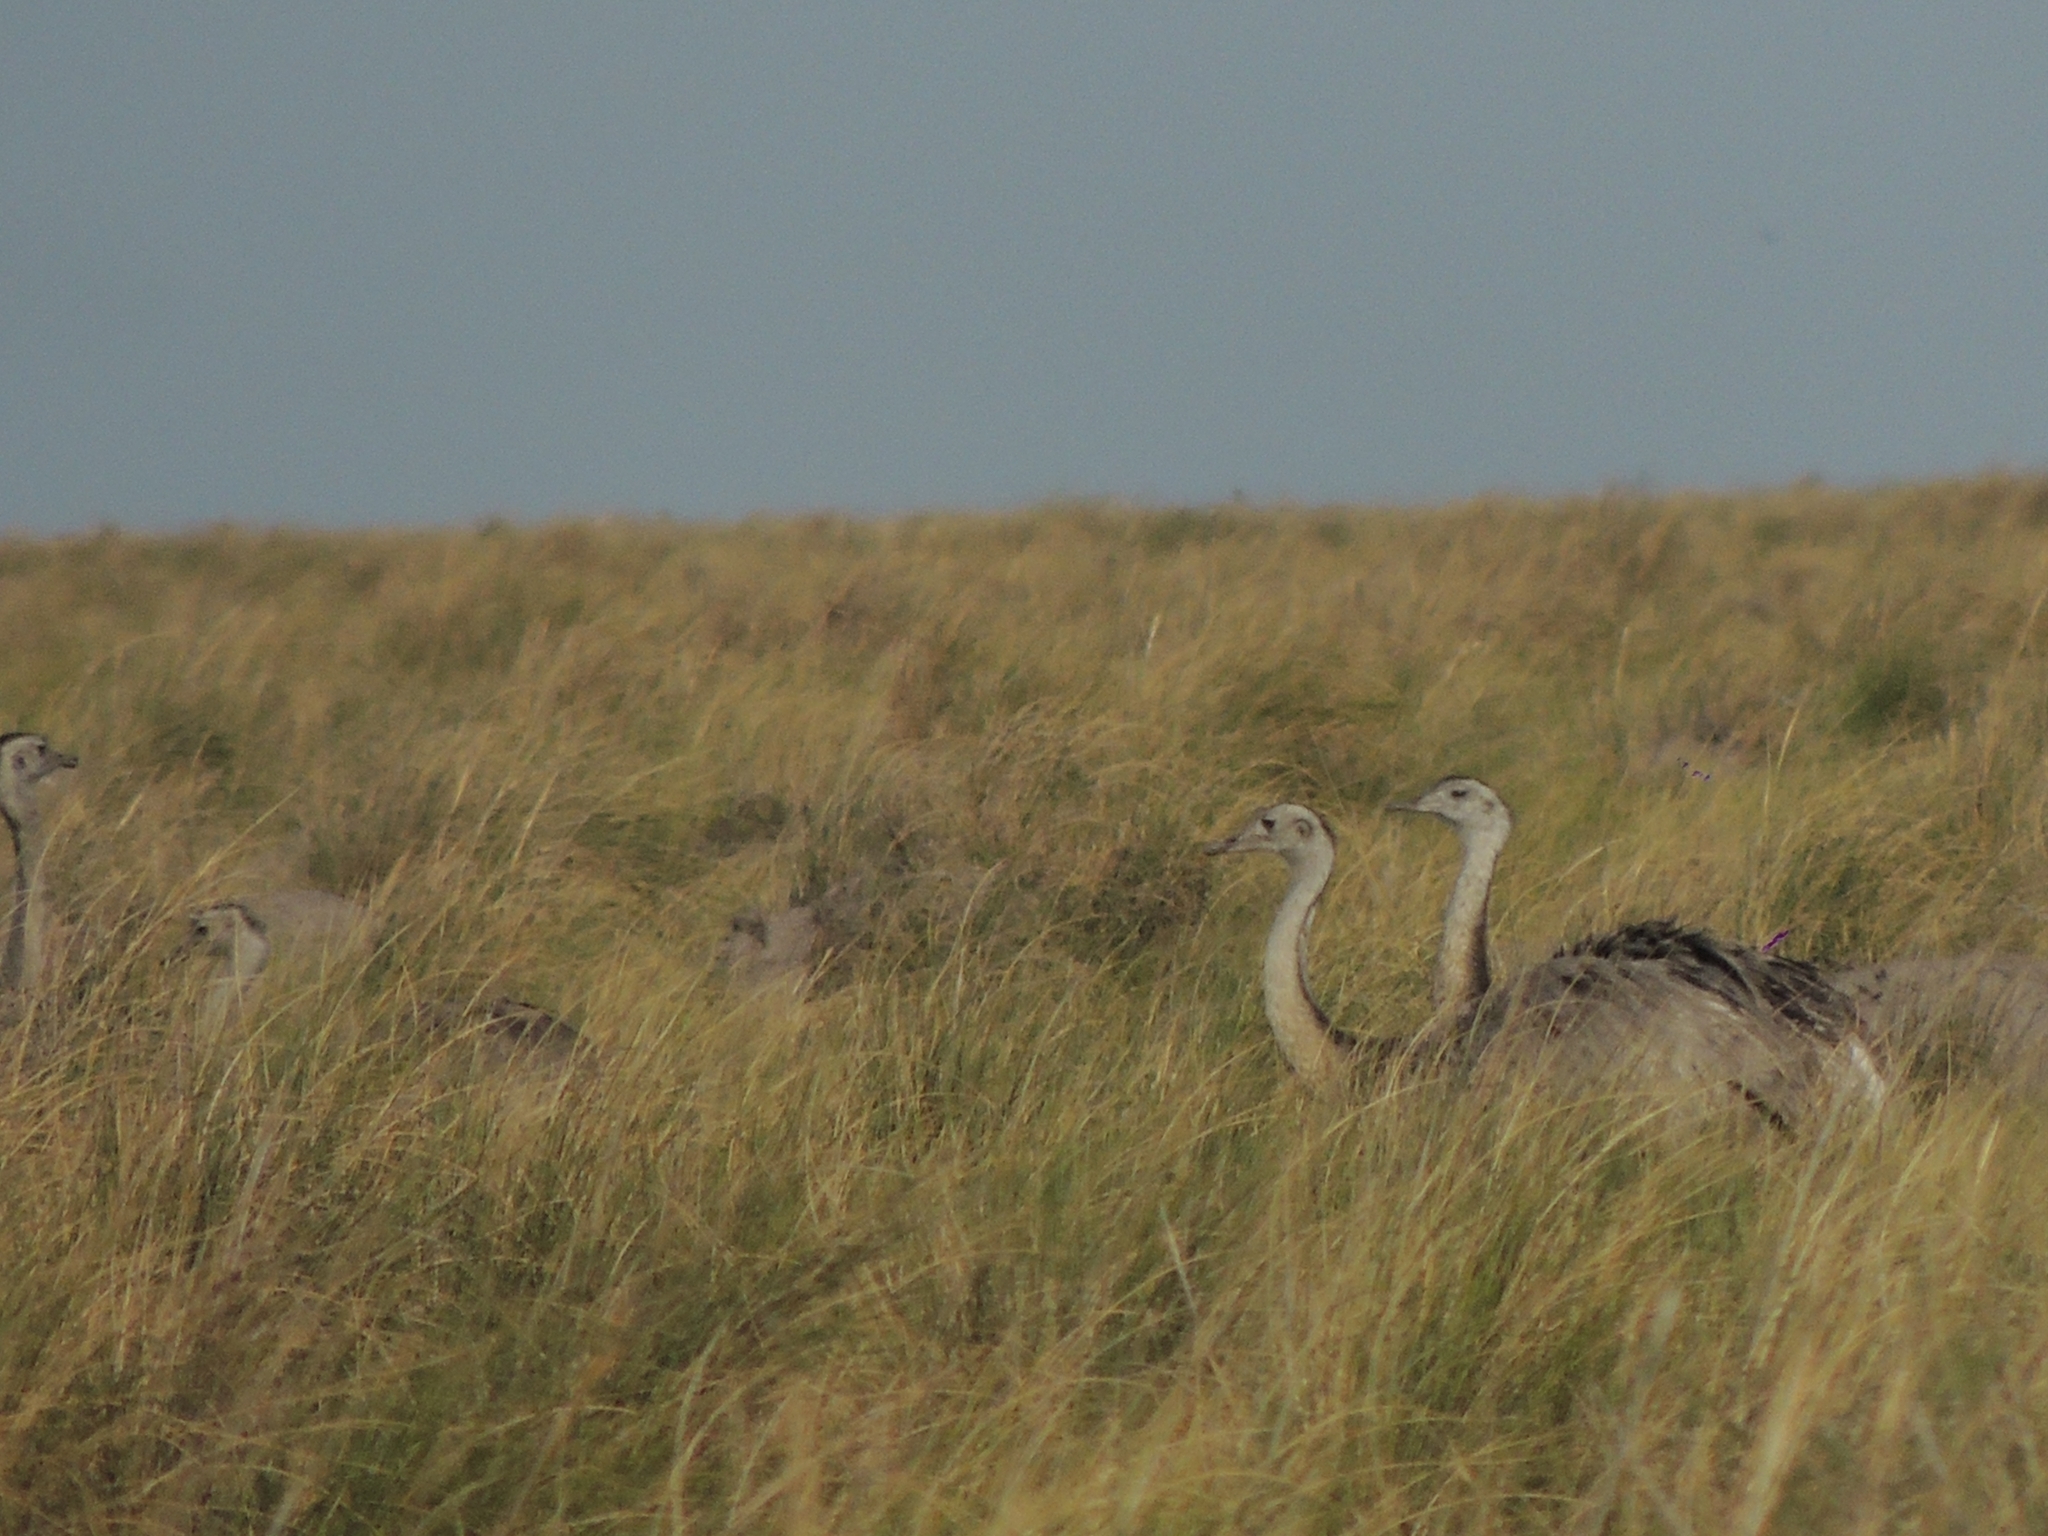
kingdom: Animalia
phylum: Chordata
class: Aves
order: Rheiformes
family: Rheidae
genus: Rhea
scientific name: Rhea americana
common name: Greater rhea
